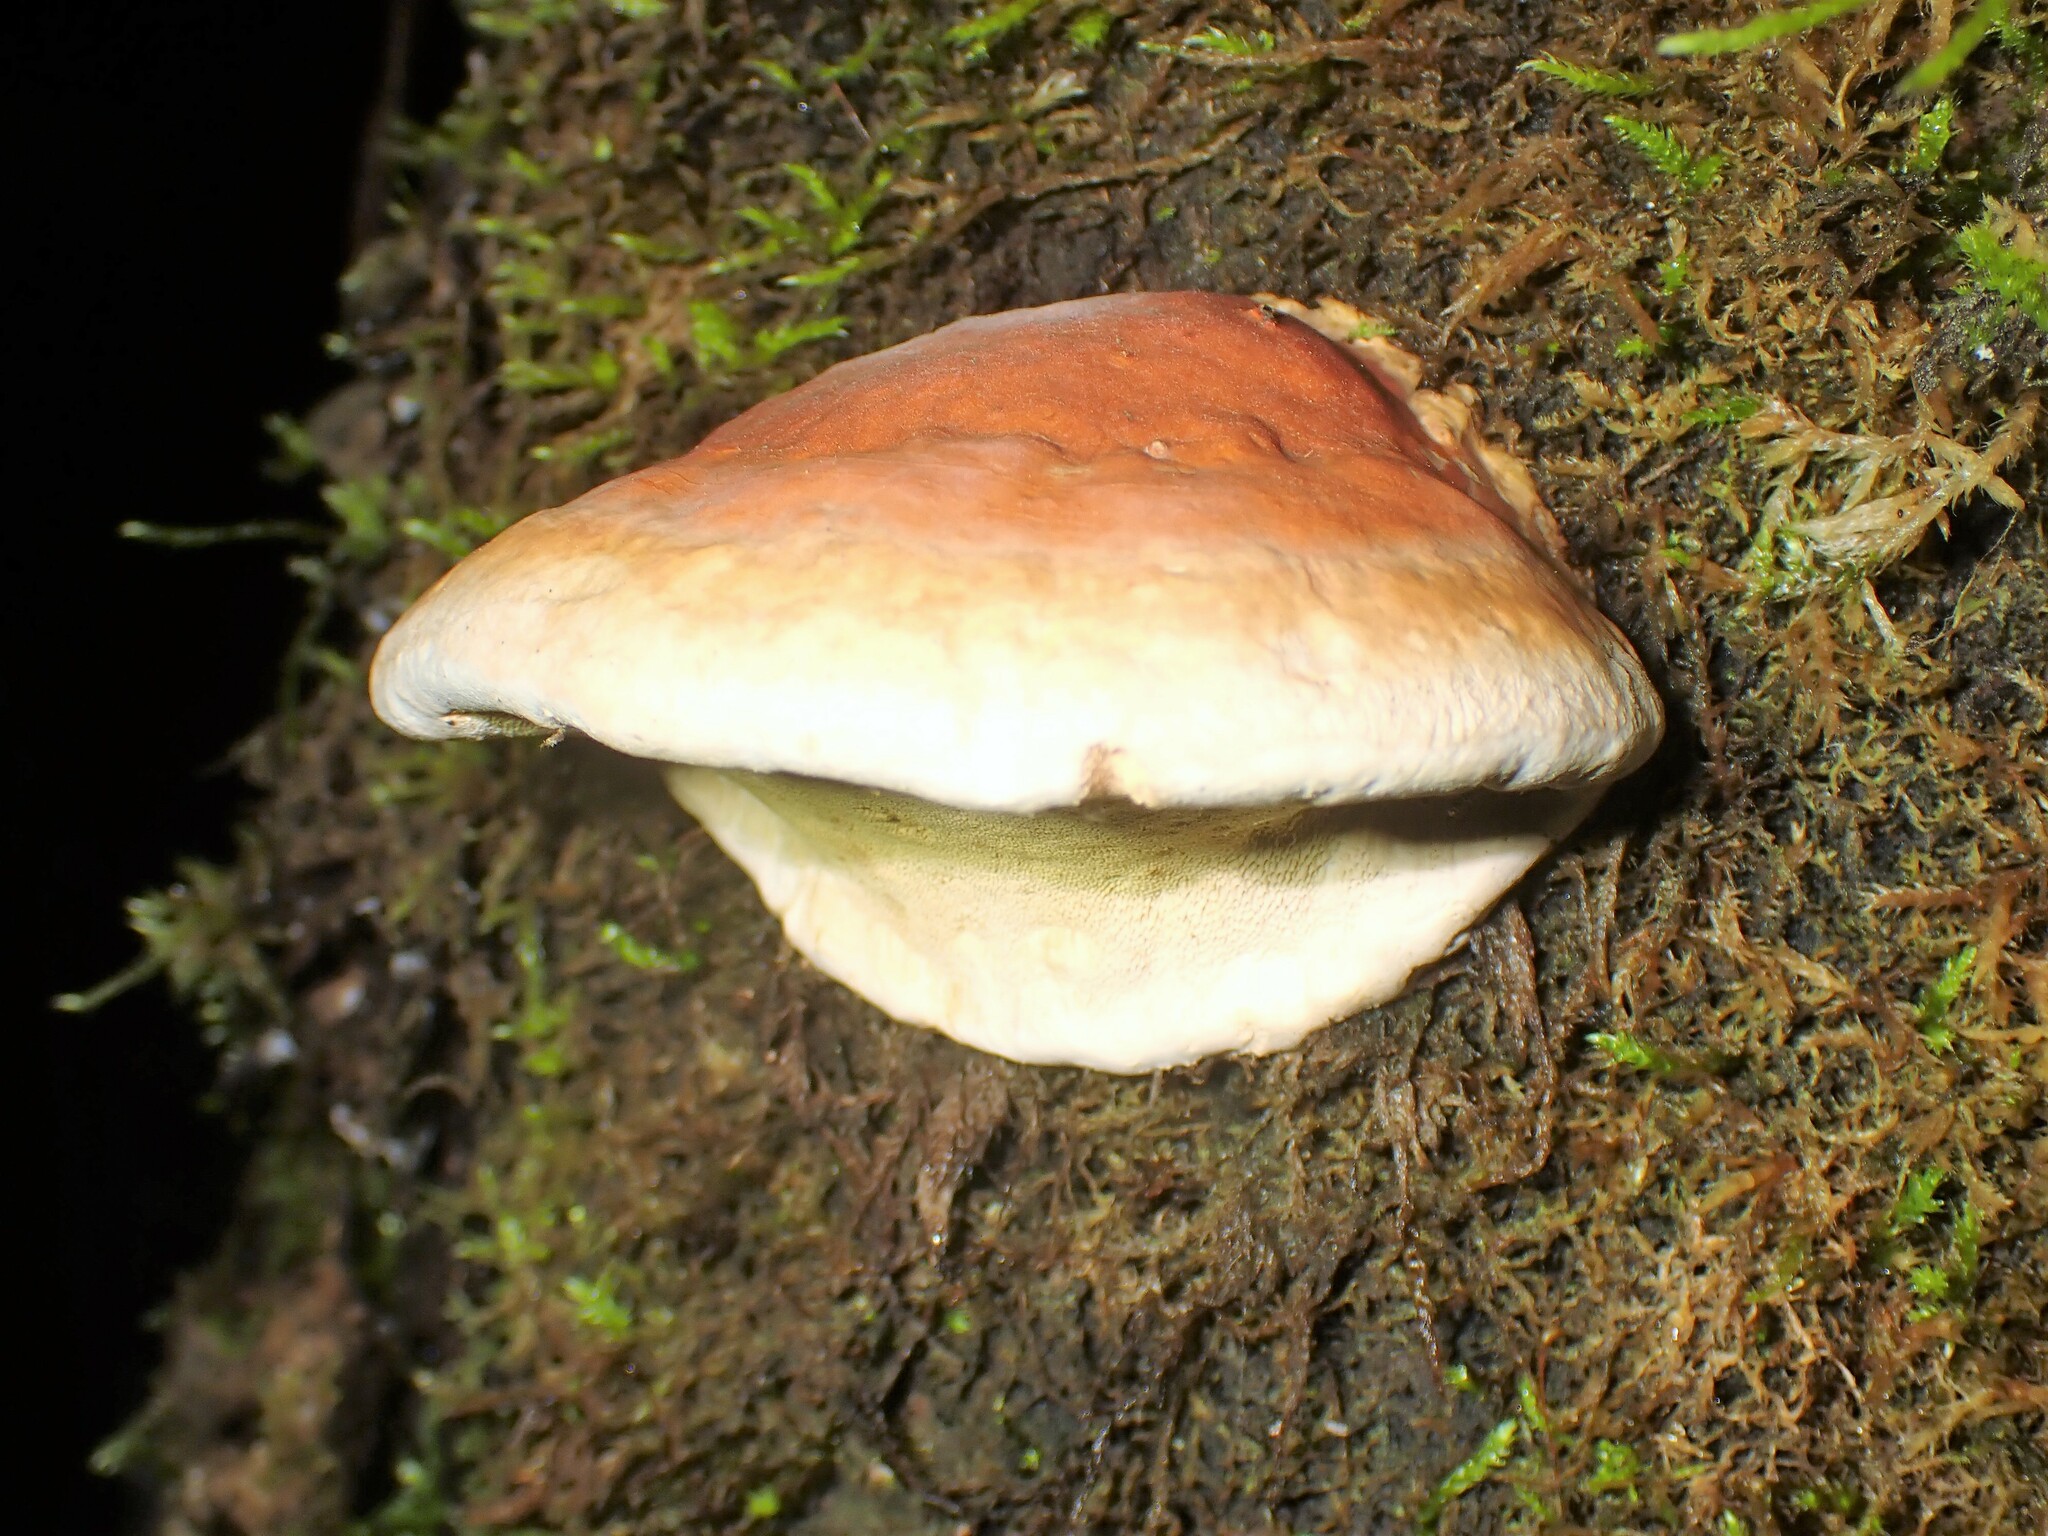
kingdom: Fungi
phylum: Basidiomycota
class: Agaricomycetes
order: Polyporales
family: Fomitopsidaceae
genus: Fomitopsis
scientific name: Fomitopsis mounceae
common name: Northern red belt
